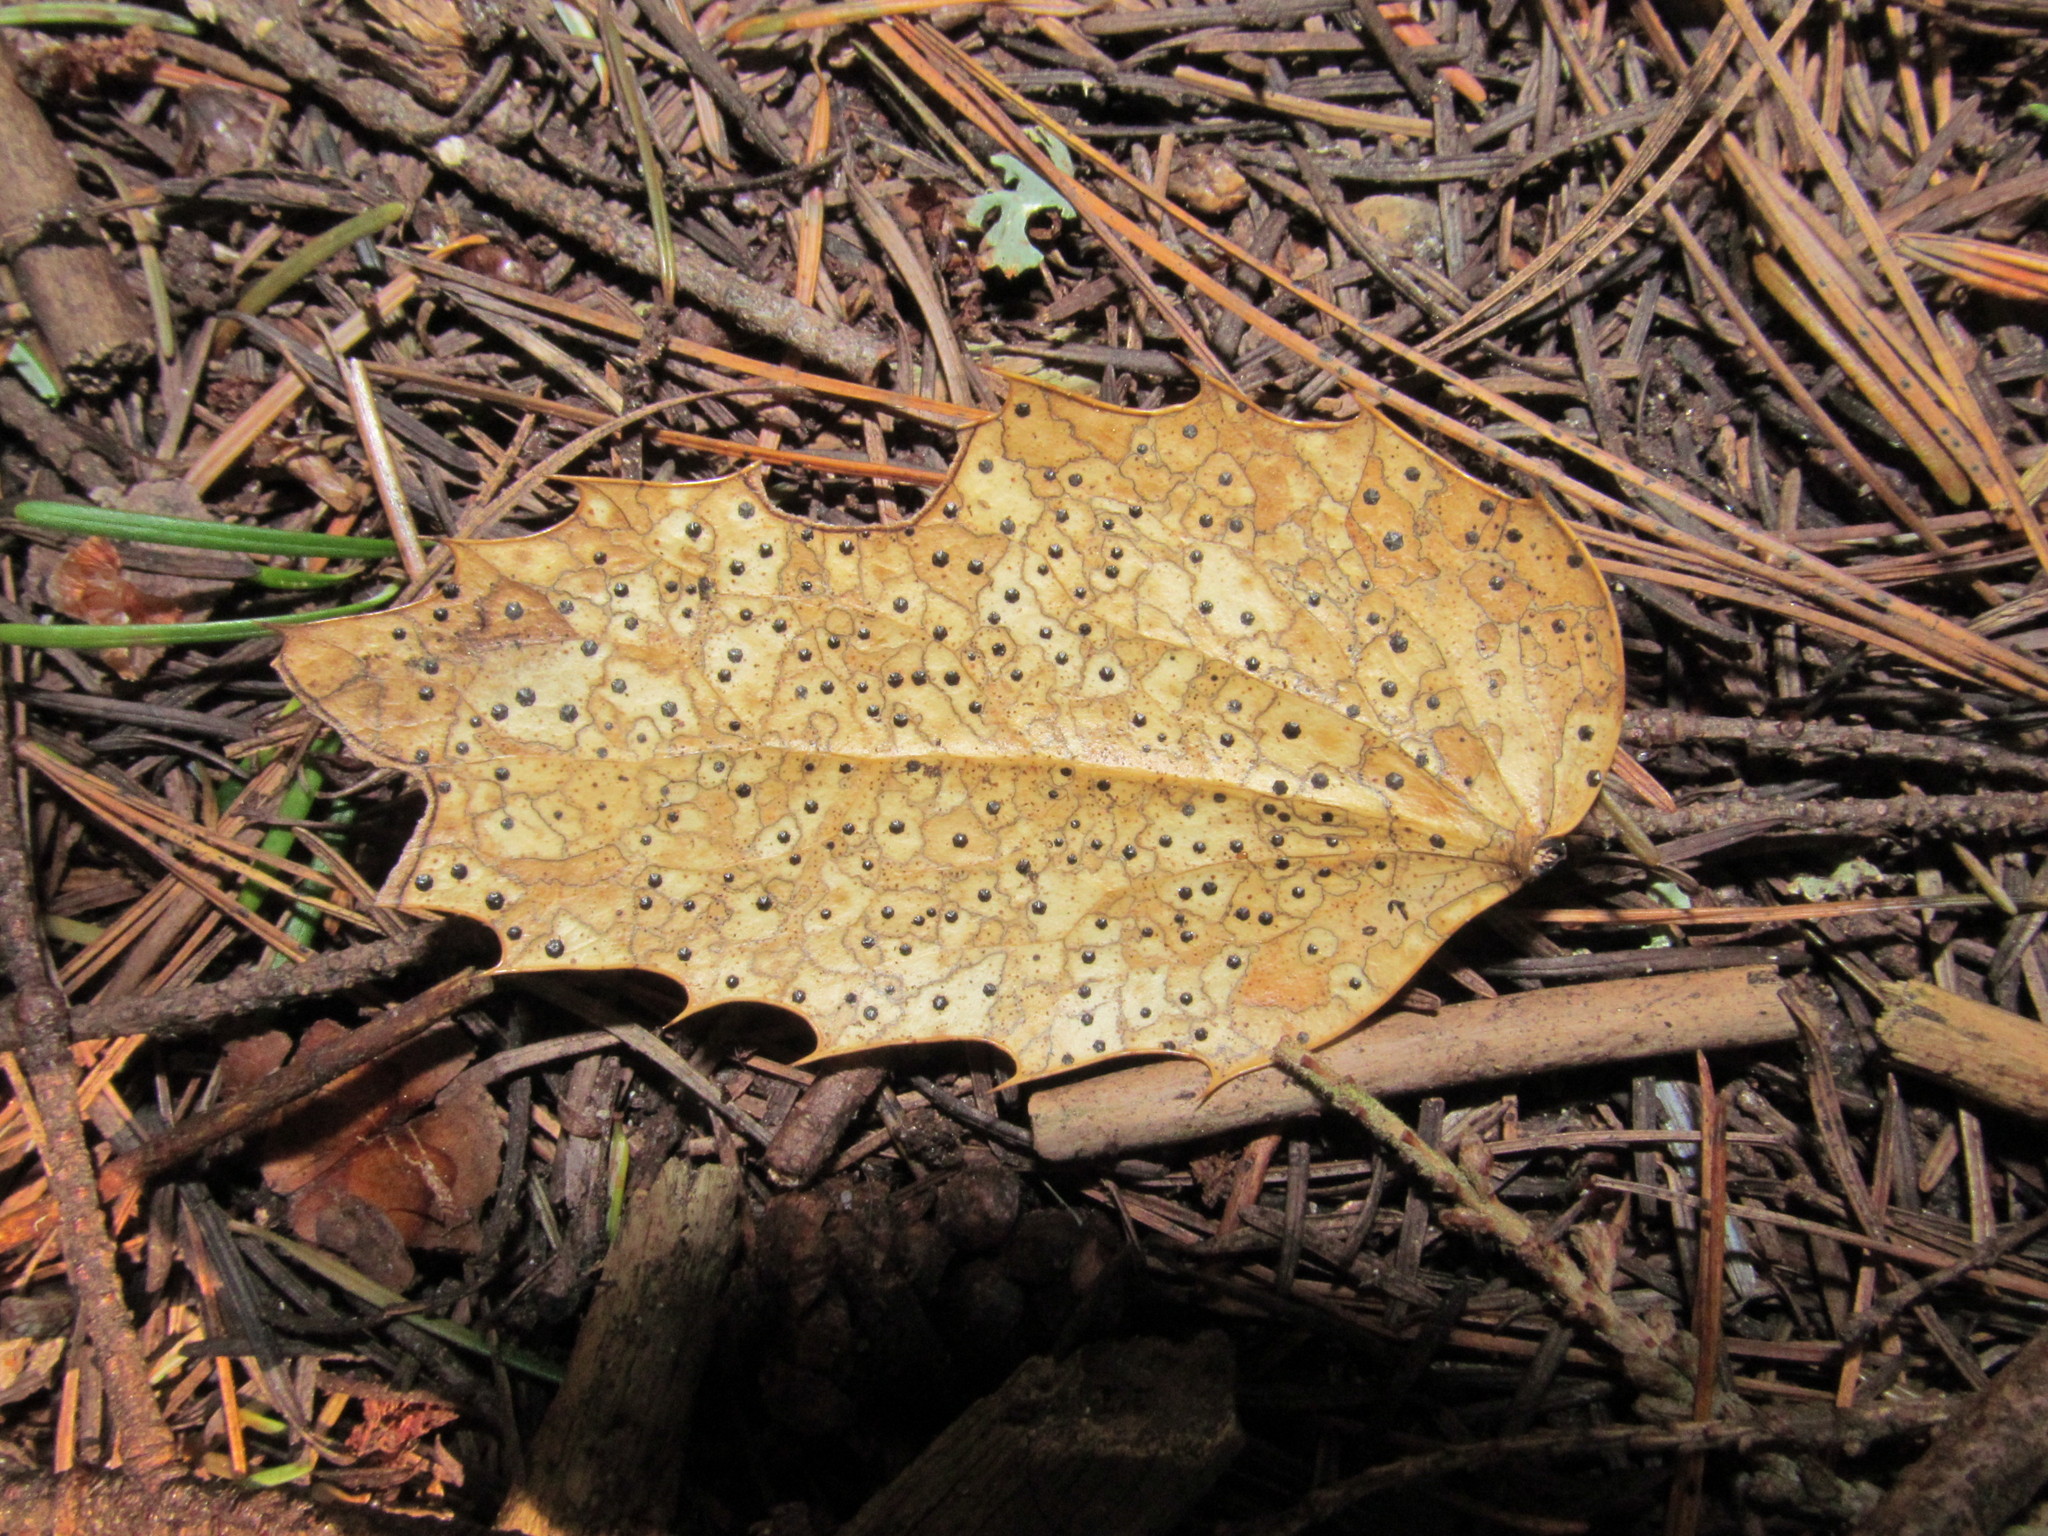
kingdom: Fungi
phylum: Ascomycota
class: Leotiomycetes
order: Rhytismatales
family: Rhytismataceae
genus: Coccomyces
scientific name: Coccomyces dentatus
